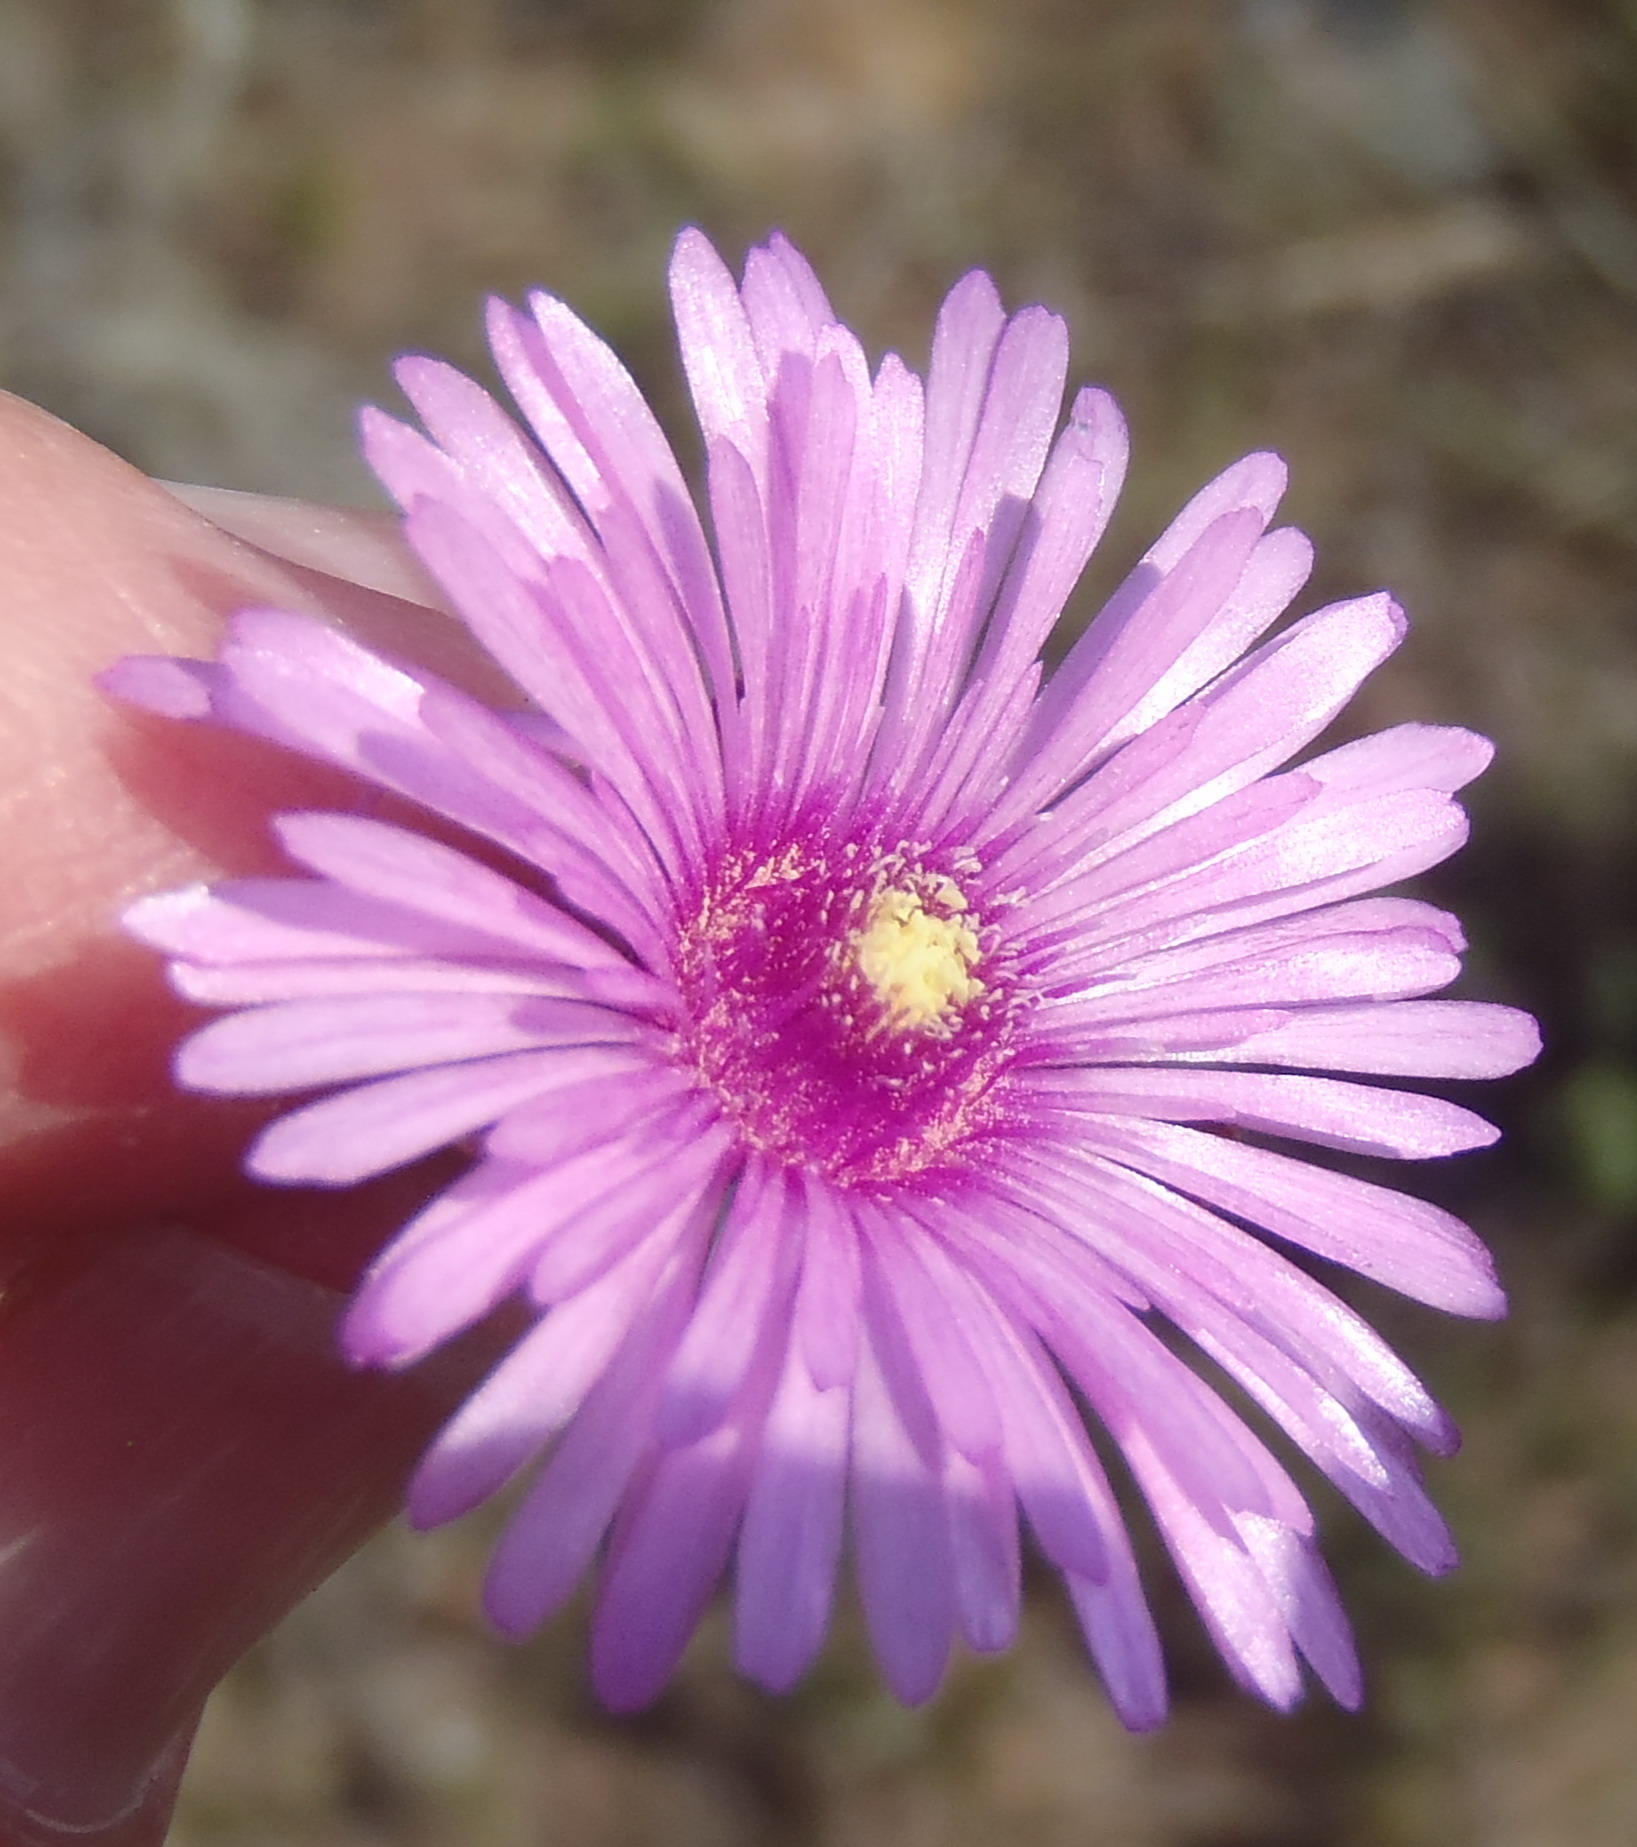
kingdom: Plantae
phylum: Tracheophyta
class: Magnoliopsida
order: Caryophyllales
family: Aizoaceae
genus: Lampranthus
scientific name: Lampranthus elegans
